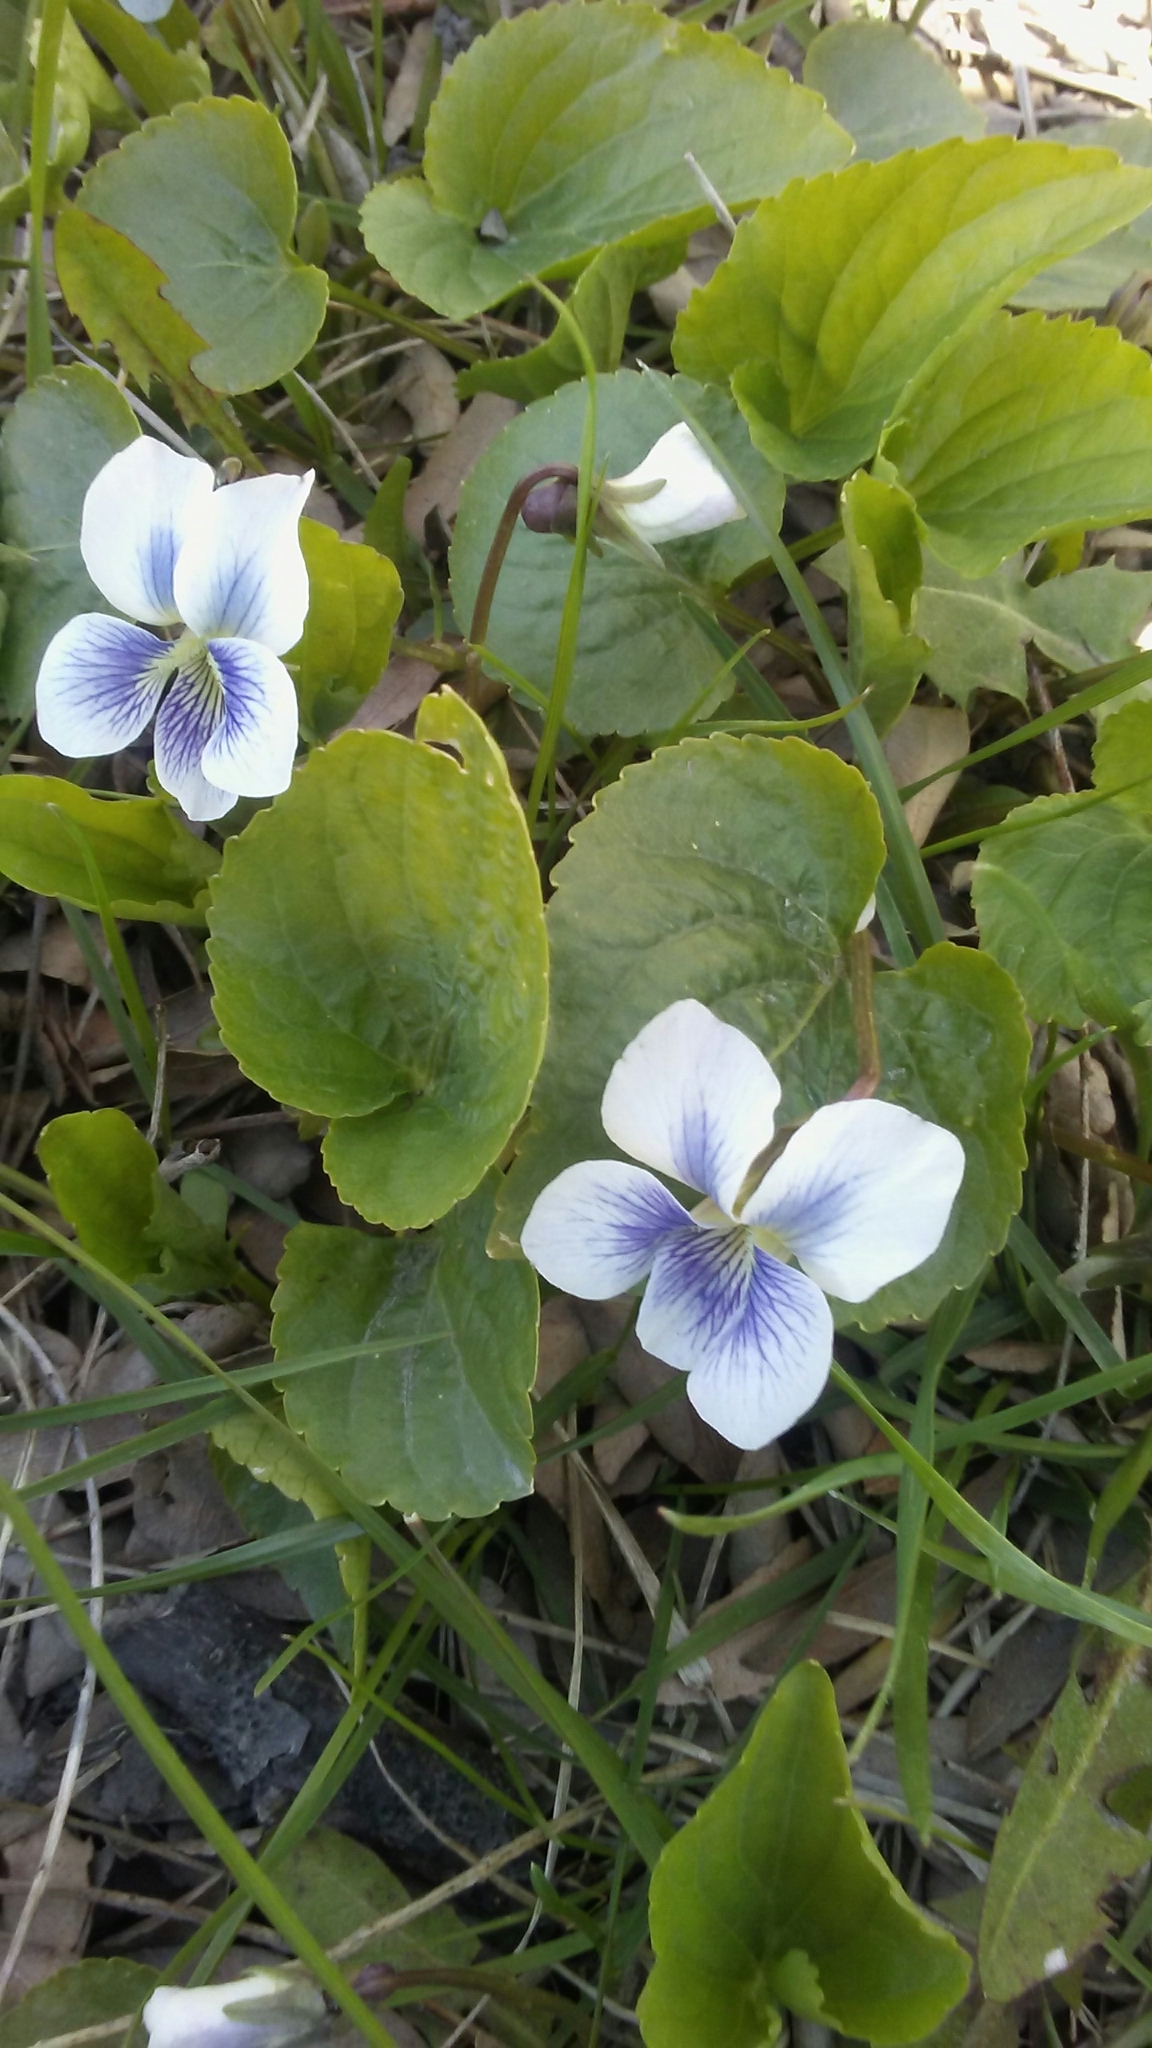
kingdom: Plantae
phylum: Tracheophyta
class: Magnoliopsida
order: Malpighiales
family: Violaceae
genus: Viola
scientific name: Viola sororia
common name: Dooryard violet
